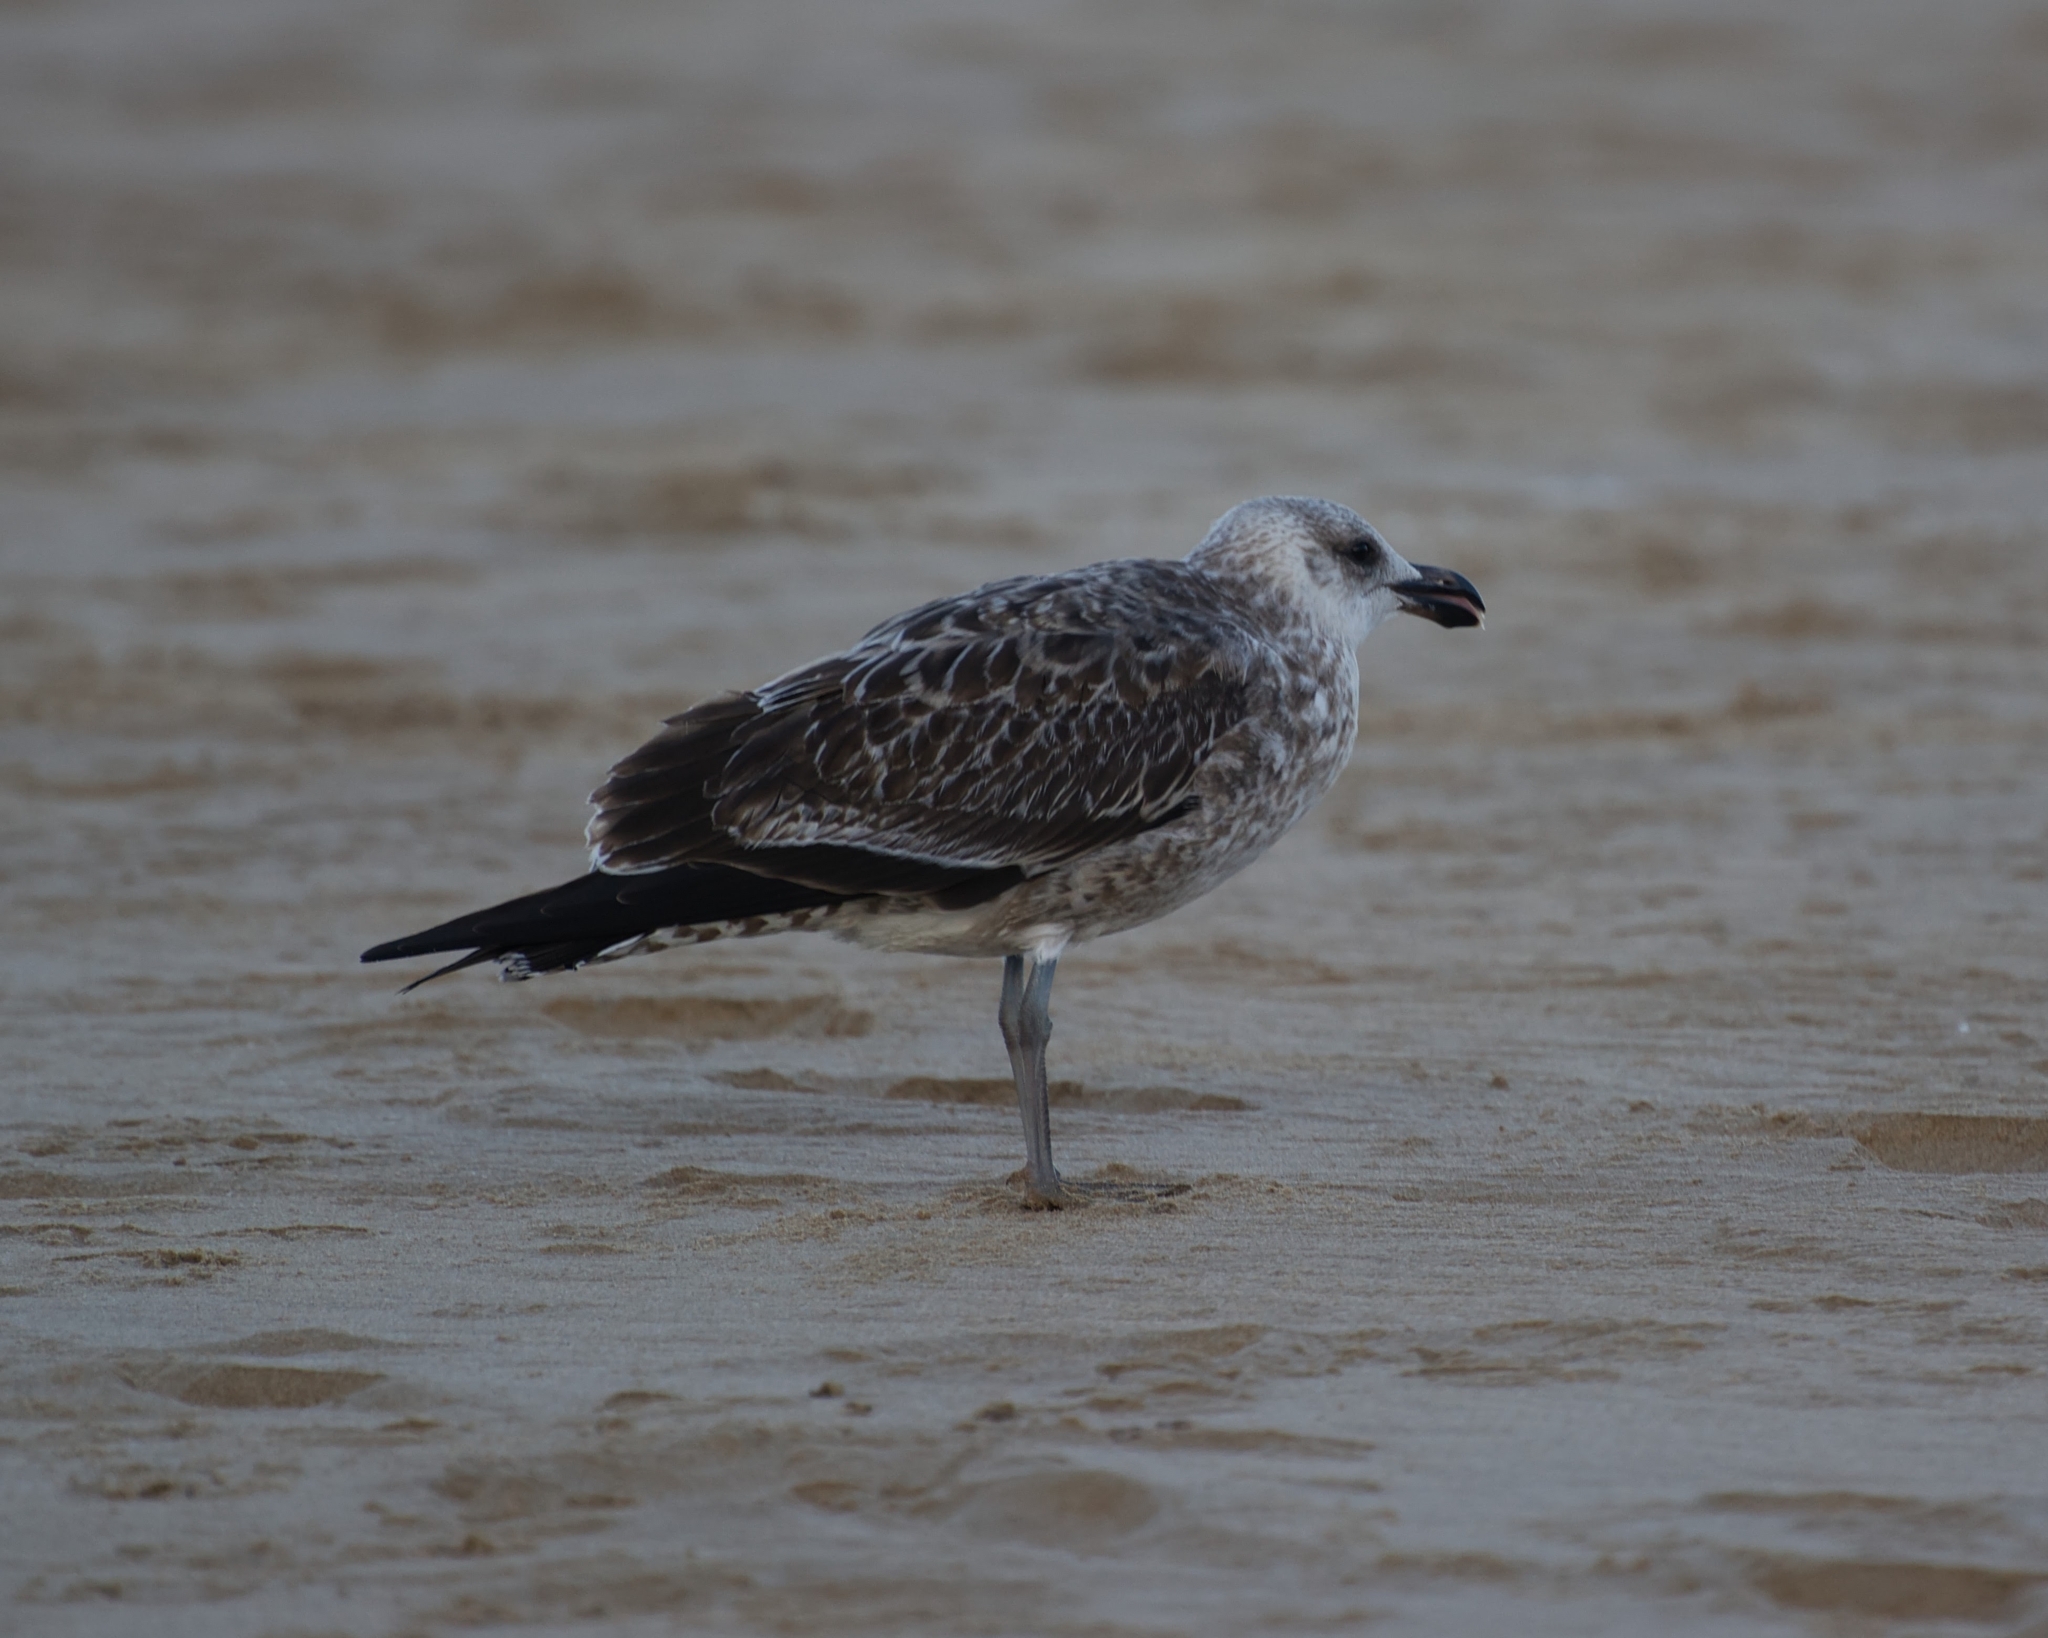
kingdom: Animalia
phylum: Chordata
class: Aves
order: Charadriiformes
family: Laridae
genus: Larus
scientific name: Larus dominicanus
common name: Kelp gull
